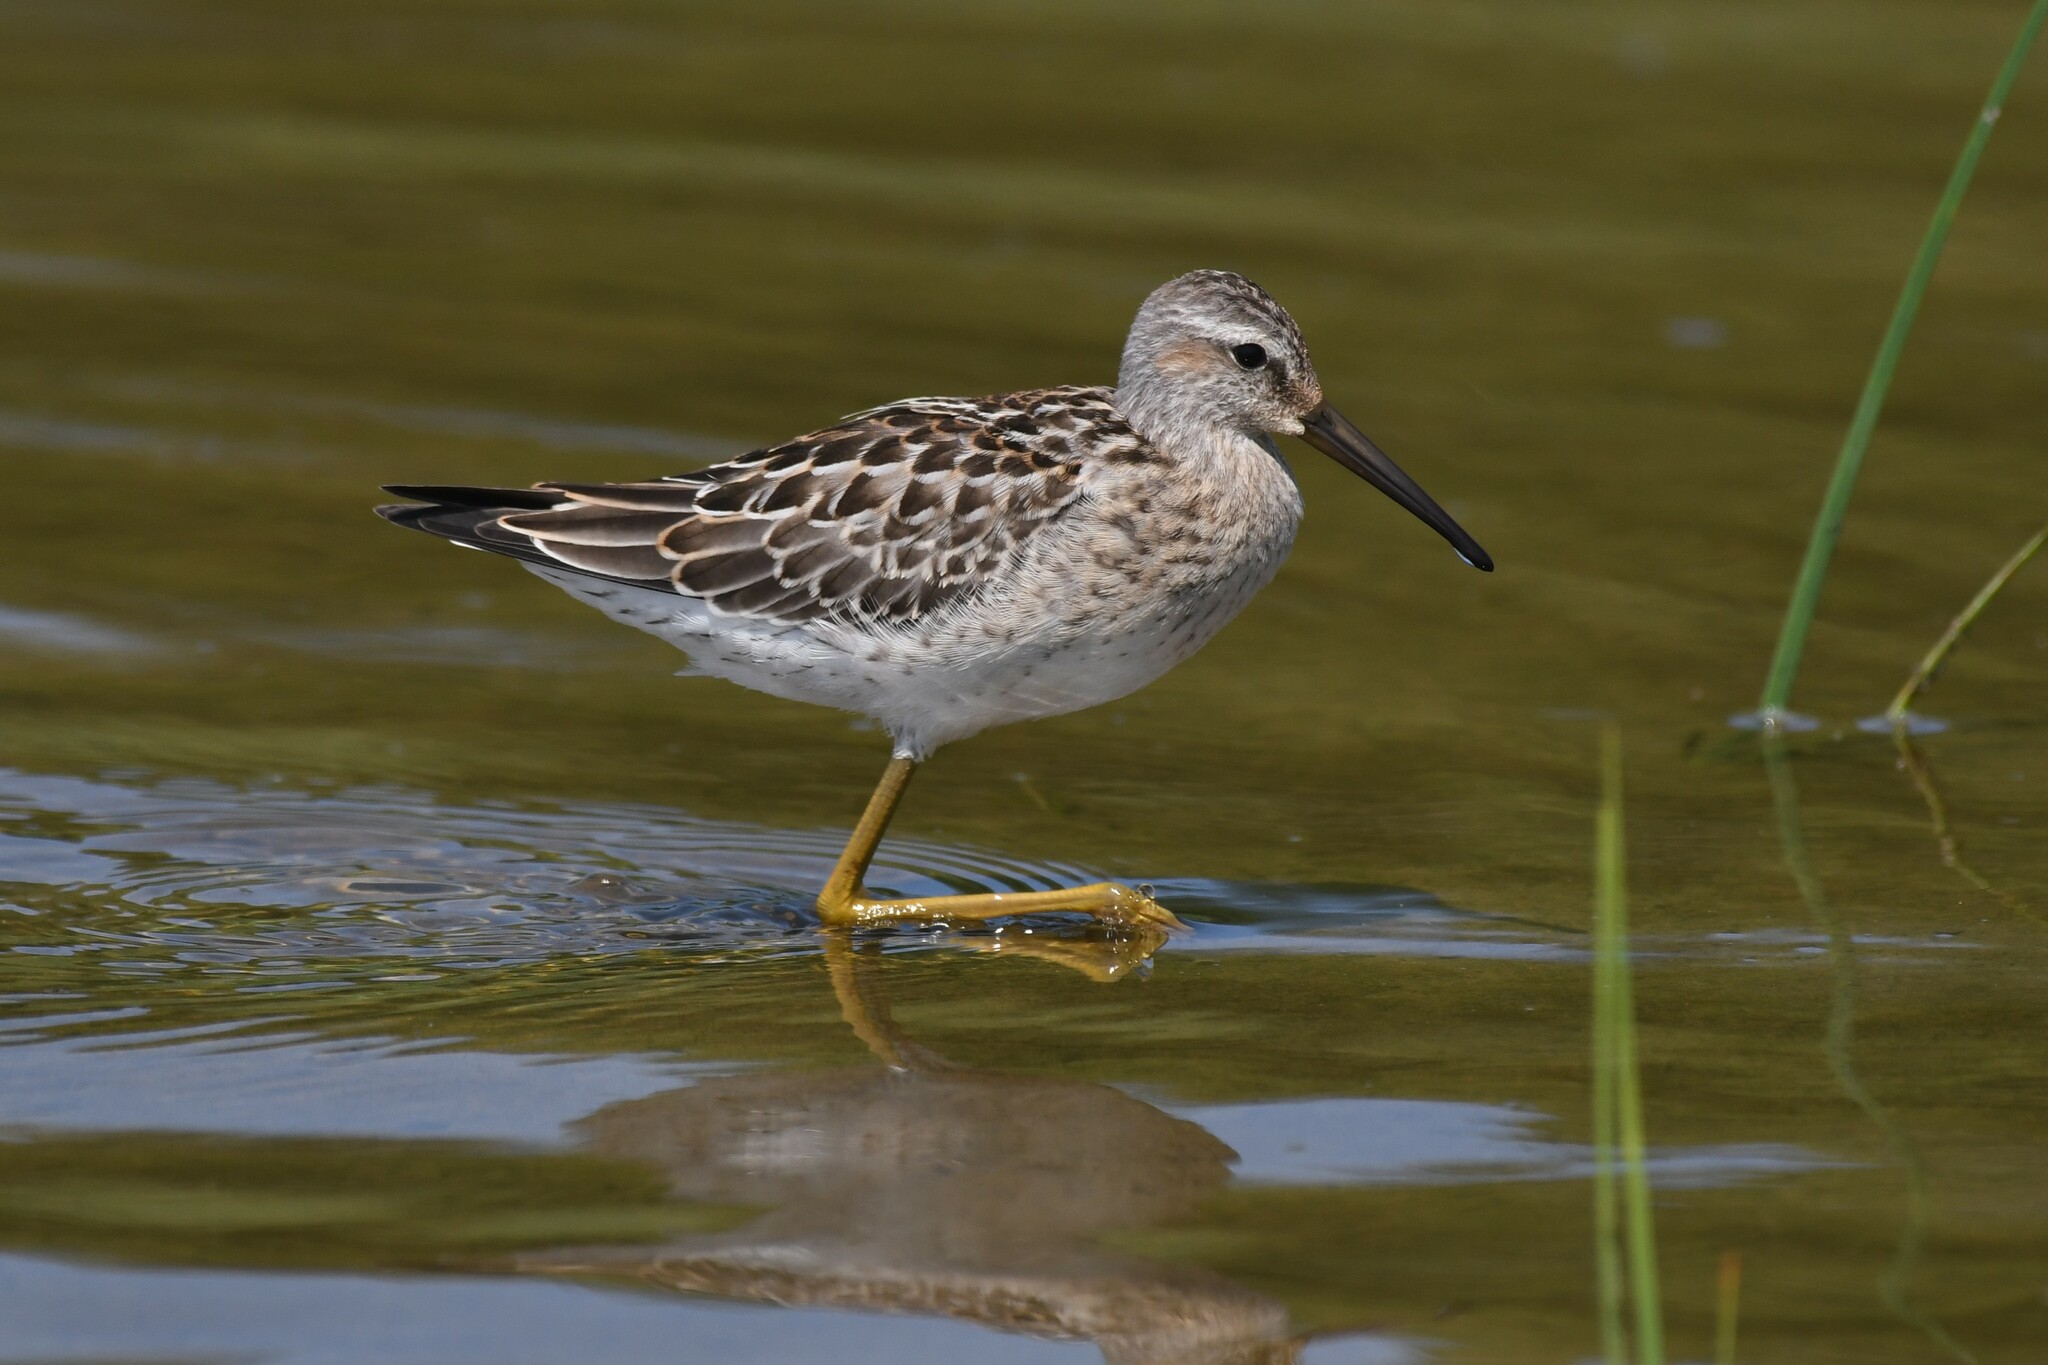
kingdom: Animalia
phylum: Chordata
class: Aves
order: Charadriiformes
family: Scolopacidae
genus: Calidris
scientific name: Calidris himantopus
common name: Stilt sandpiper
